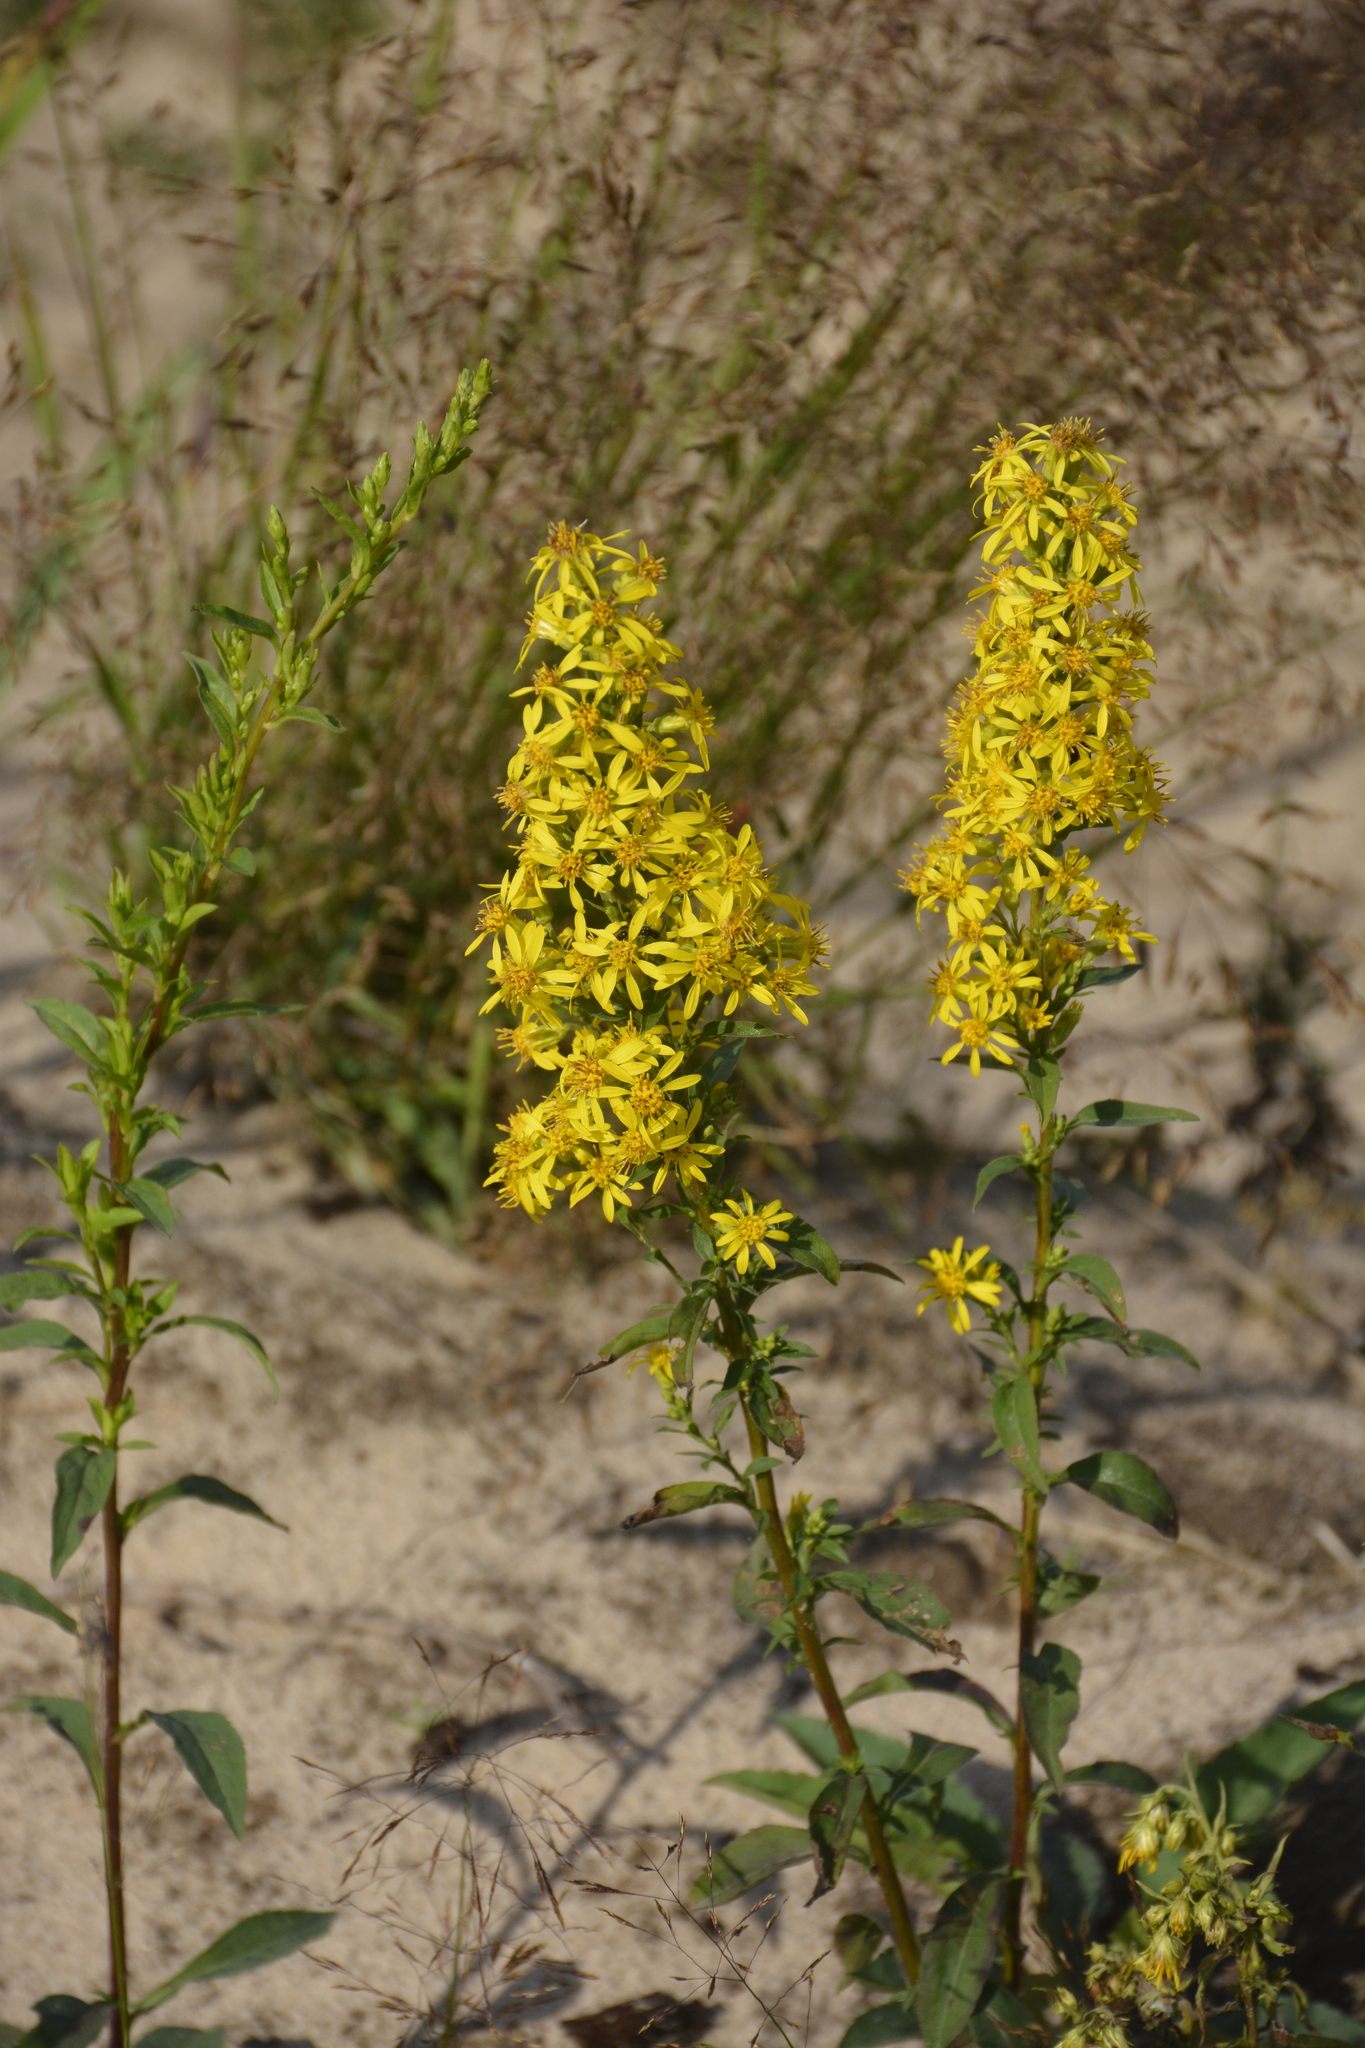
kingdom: Plantae
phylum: Tracheophyta
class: Magnoliopsida
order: Asterales
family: Asteraceae
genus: Solidago
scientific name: Solidago virgaurea
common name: Goldenrod
